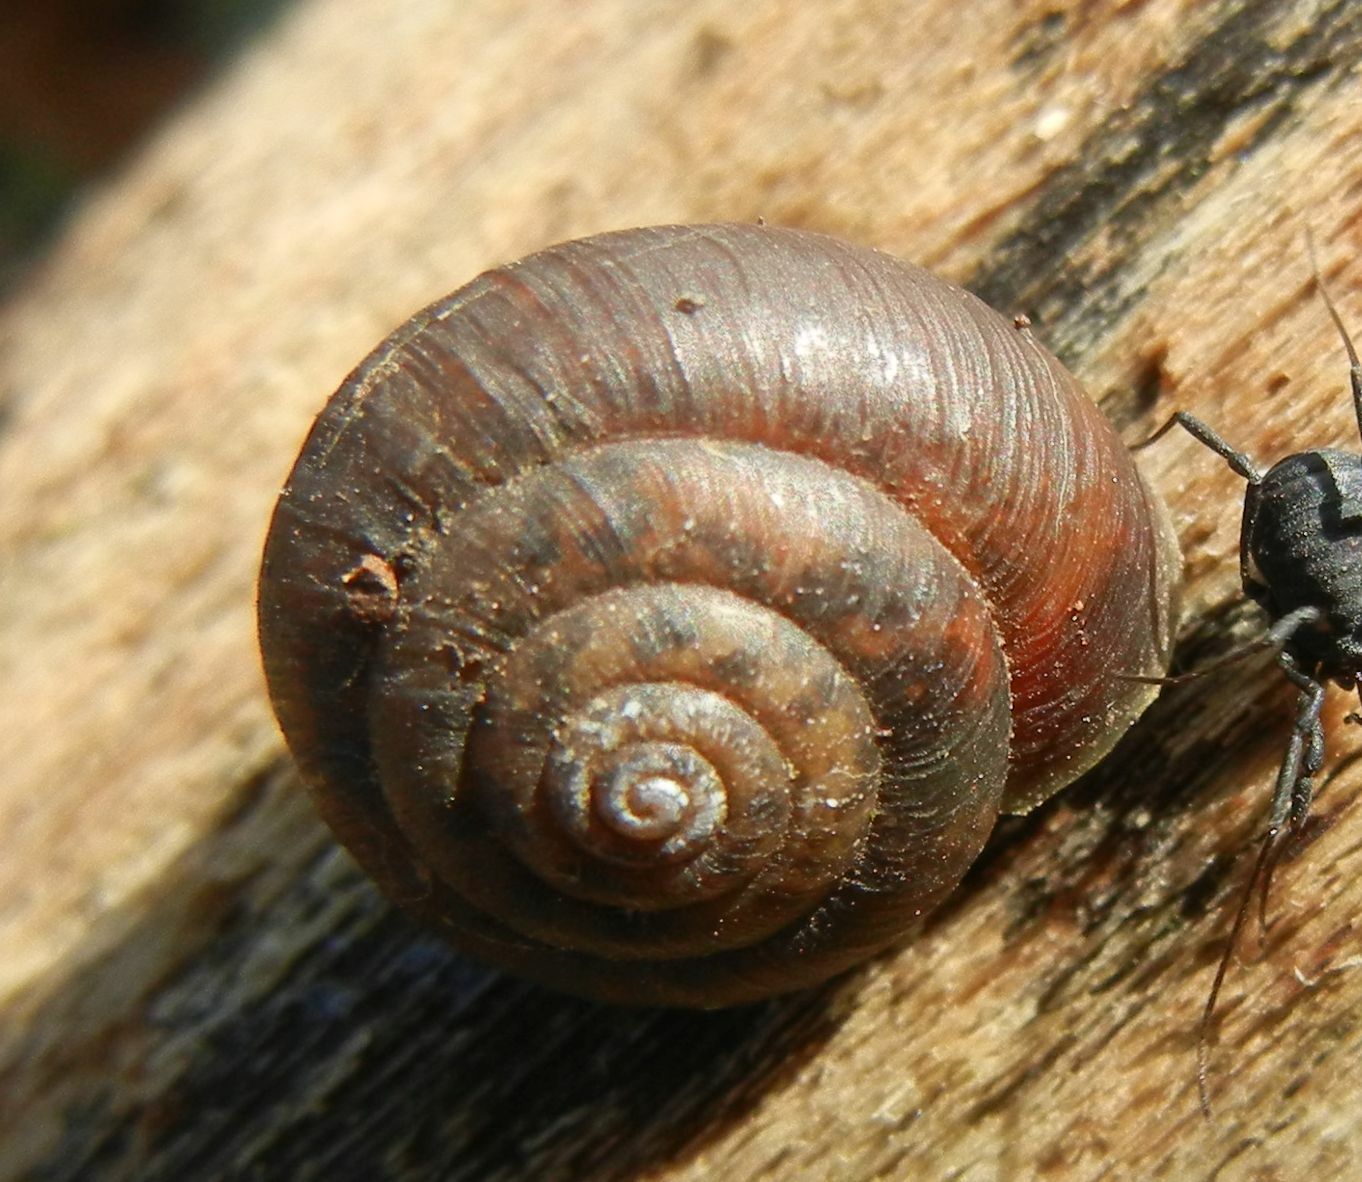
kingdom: Animalia
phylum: Mollusca
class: Gastropoda
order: Stylommatophora
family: Hygromiidae
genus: Trochulus
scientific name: Trochulus striolatus
